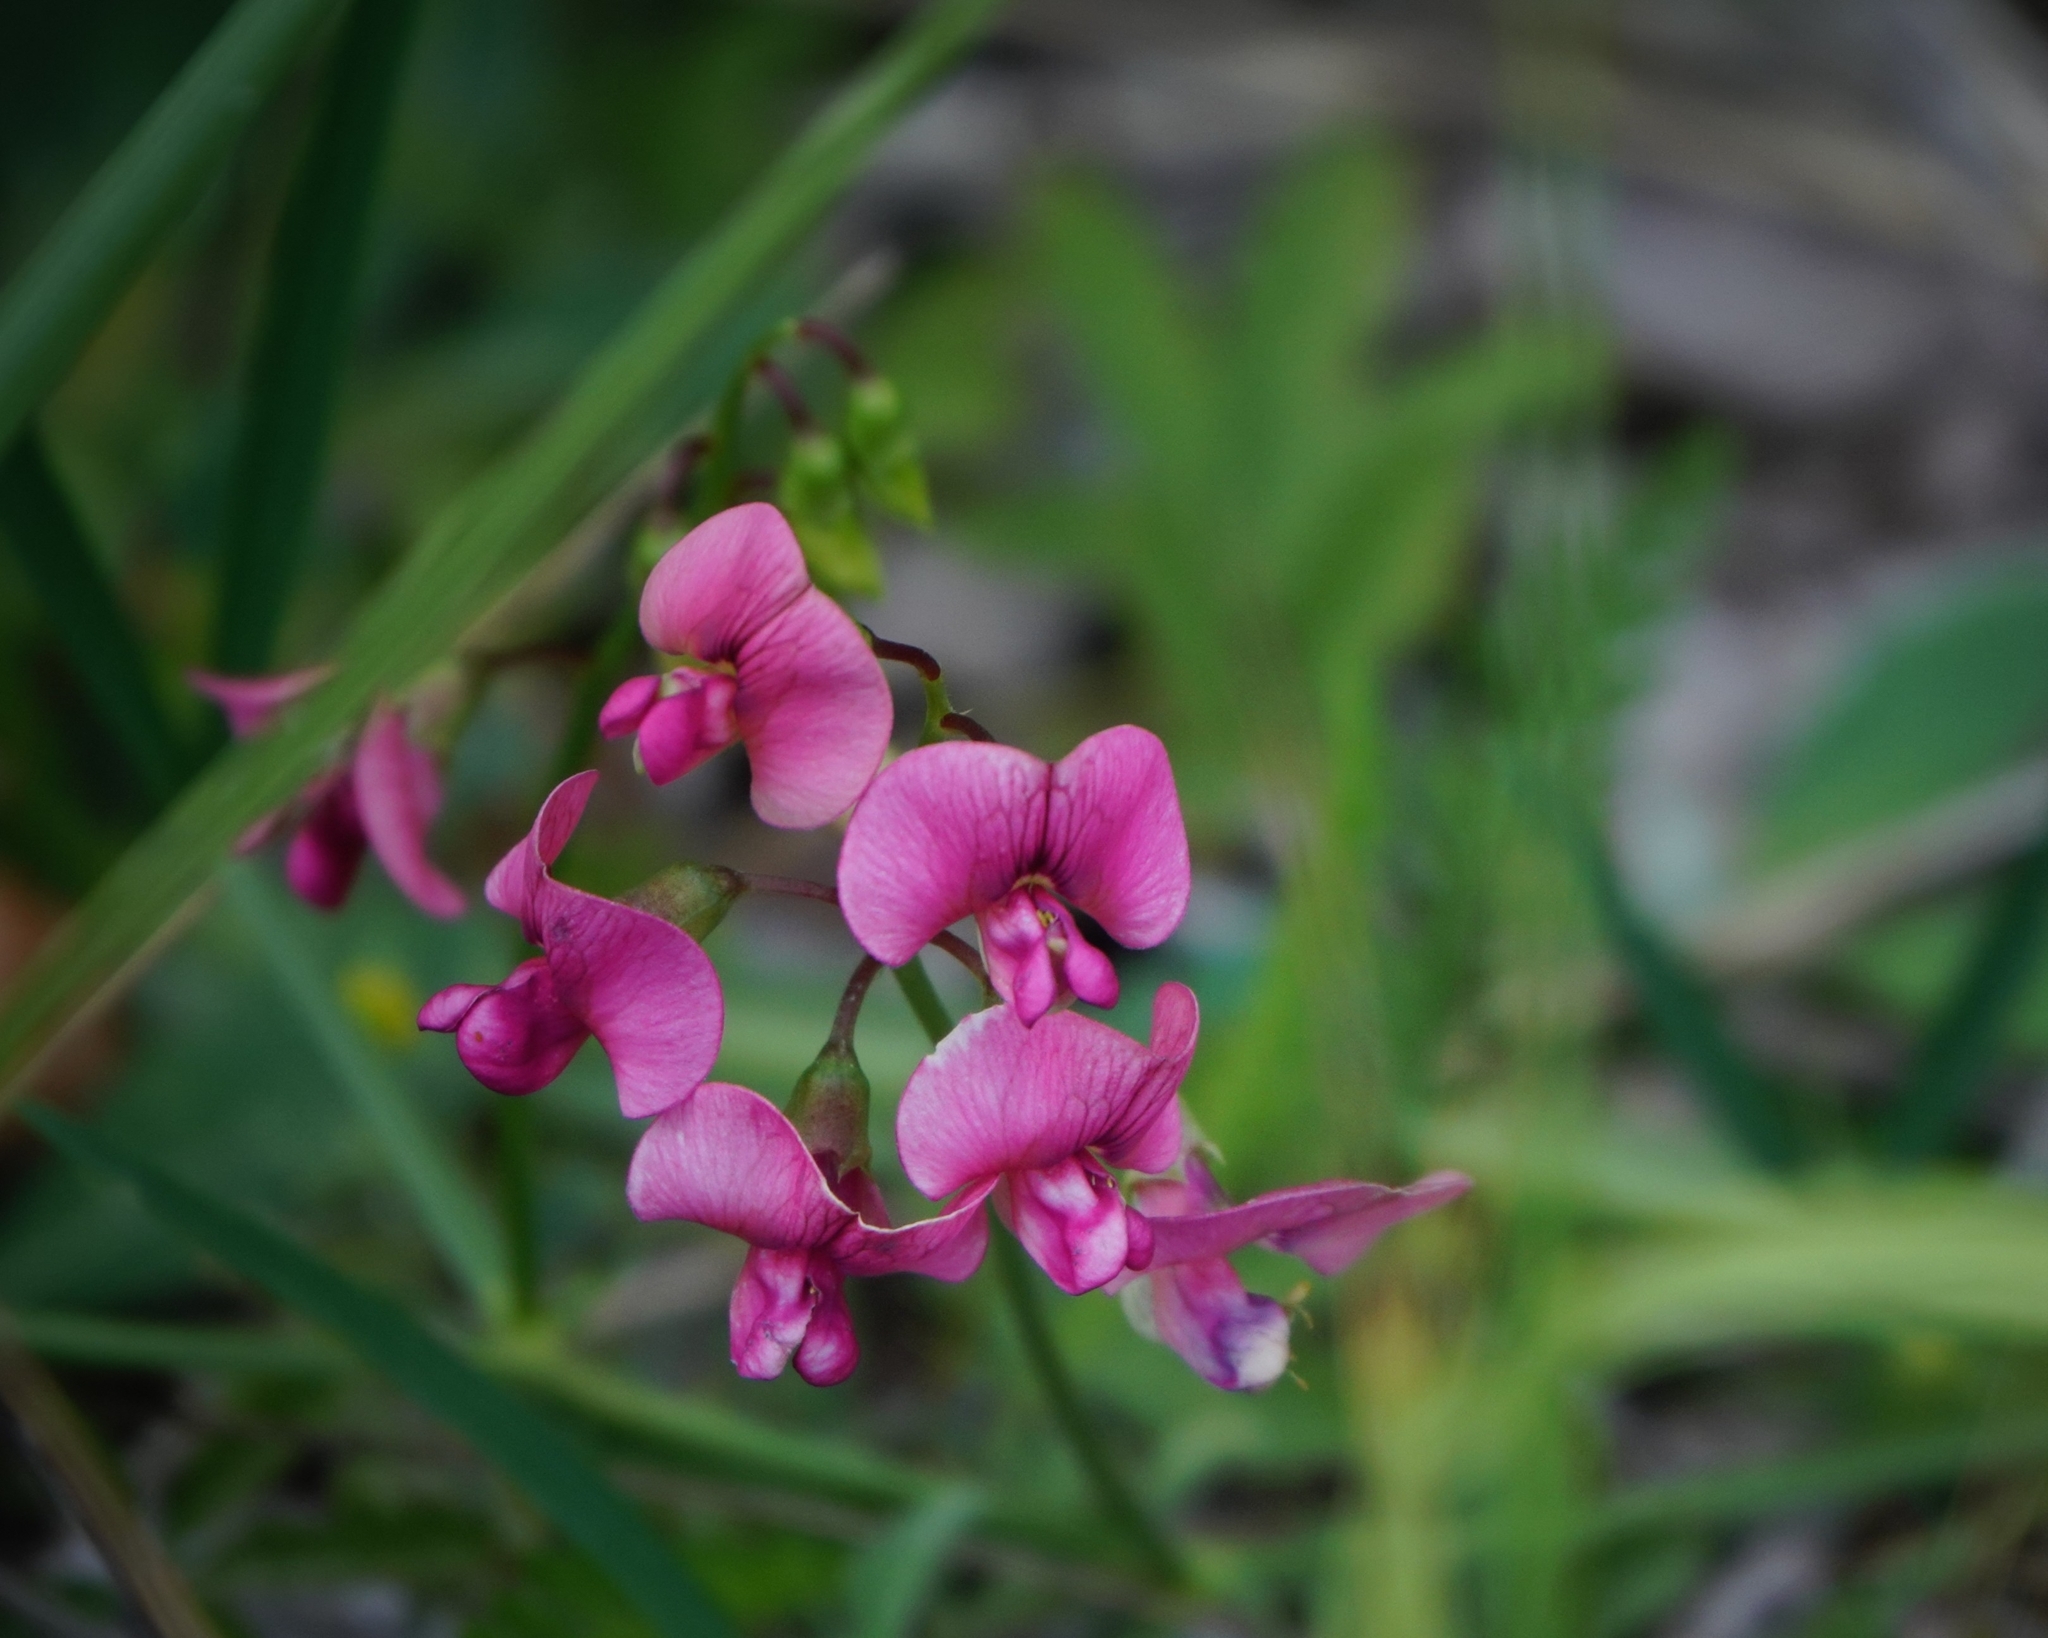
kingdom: Plantae
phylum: Tracheophyta
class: Magnoliopsida
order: Fabales
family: Fabaceae
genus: Lathyrus
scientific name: Lathyrus sylvestris
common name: Flat pea
